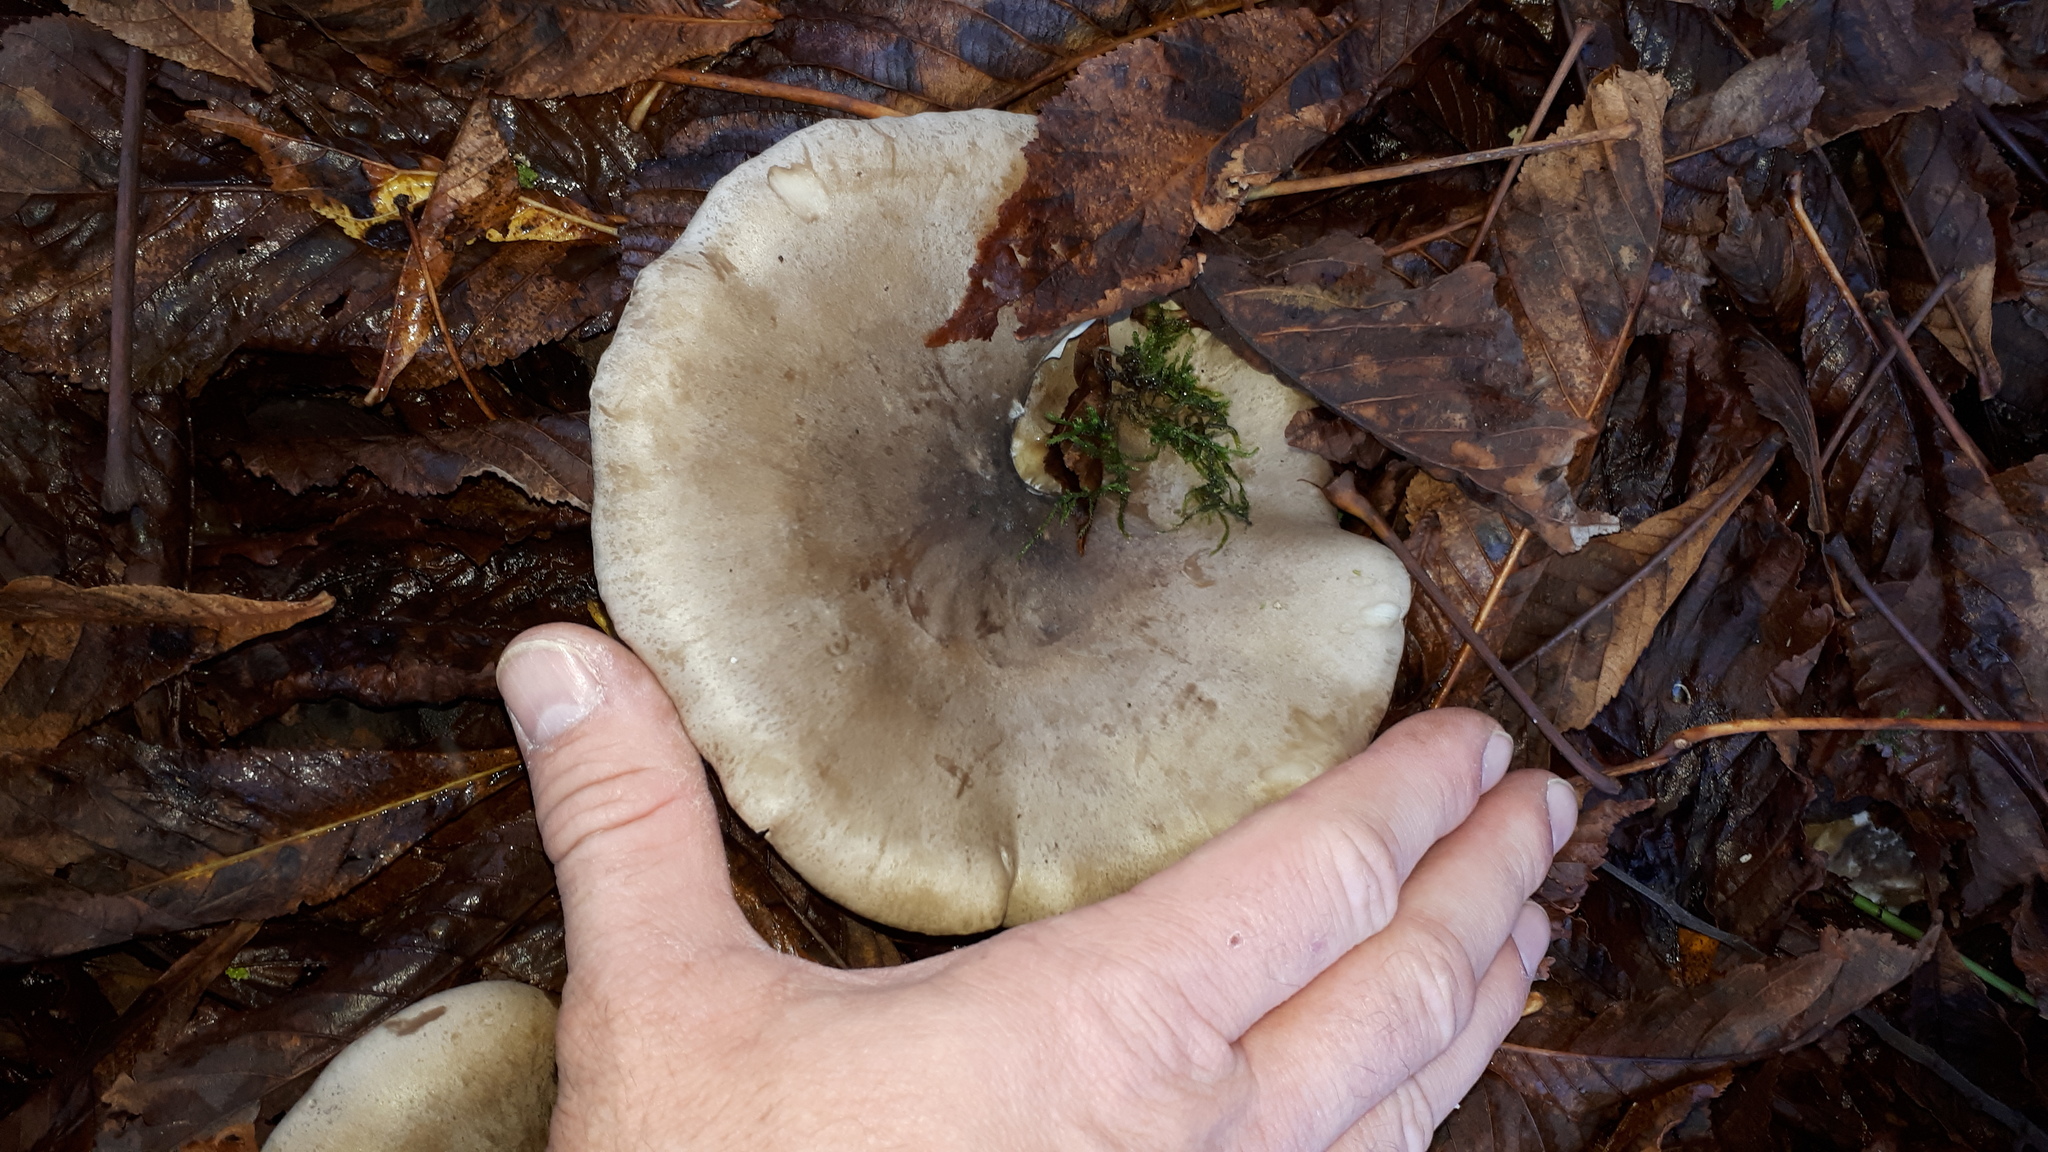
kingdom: Fungi
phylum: Basidiomycota
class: Agaricomycetes
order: Agaricales
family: Tricholomataceae
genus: Clitocybe
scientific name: Clitocybe nebularis
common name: Clouded agaric
